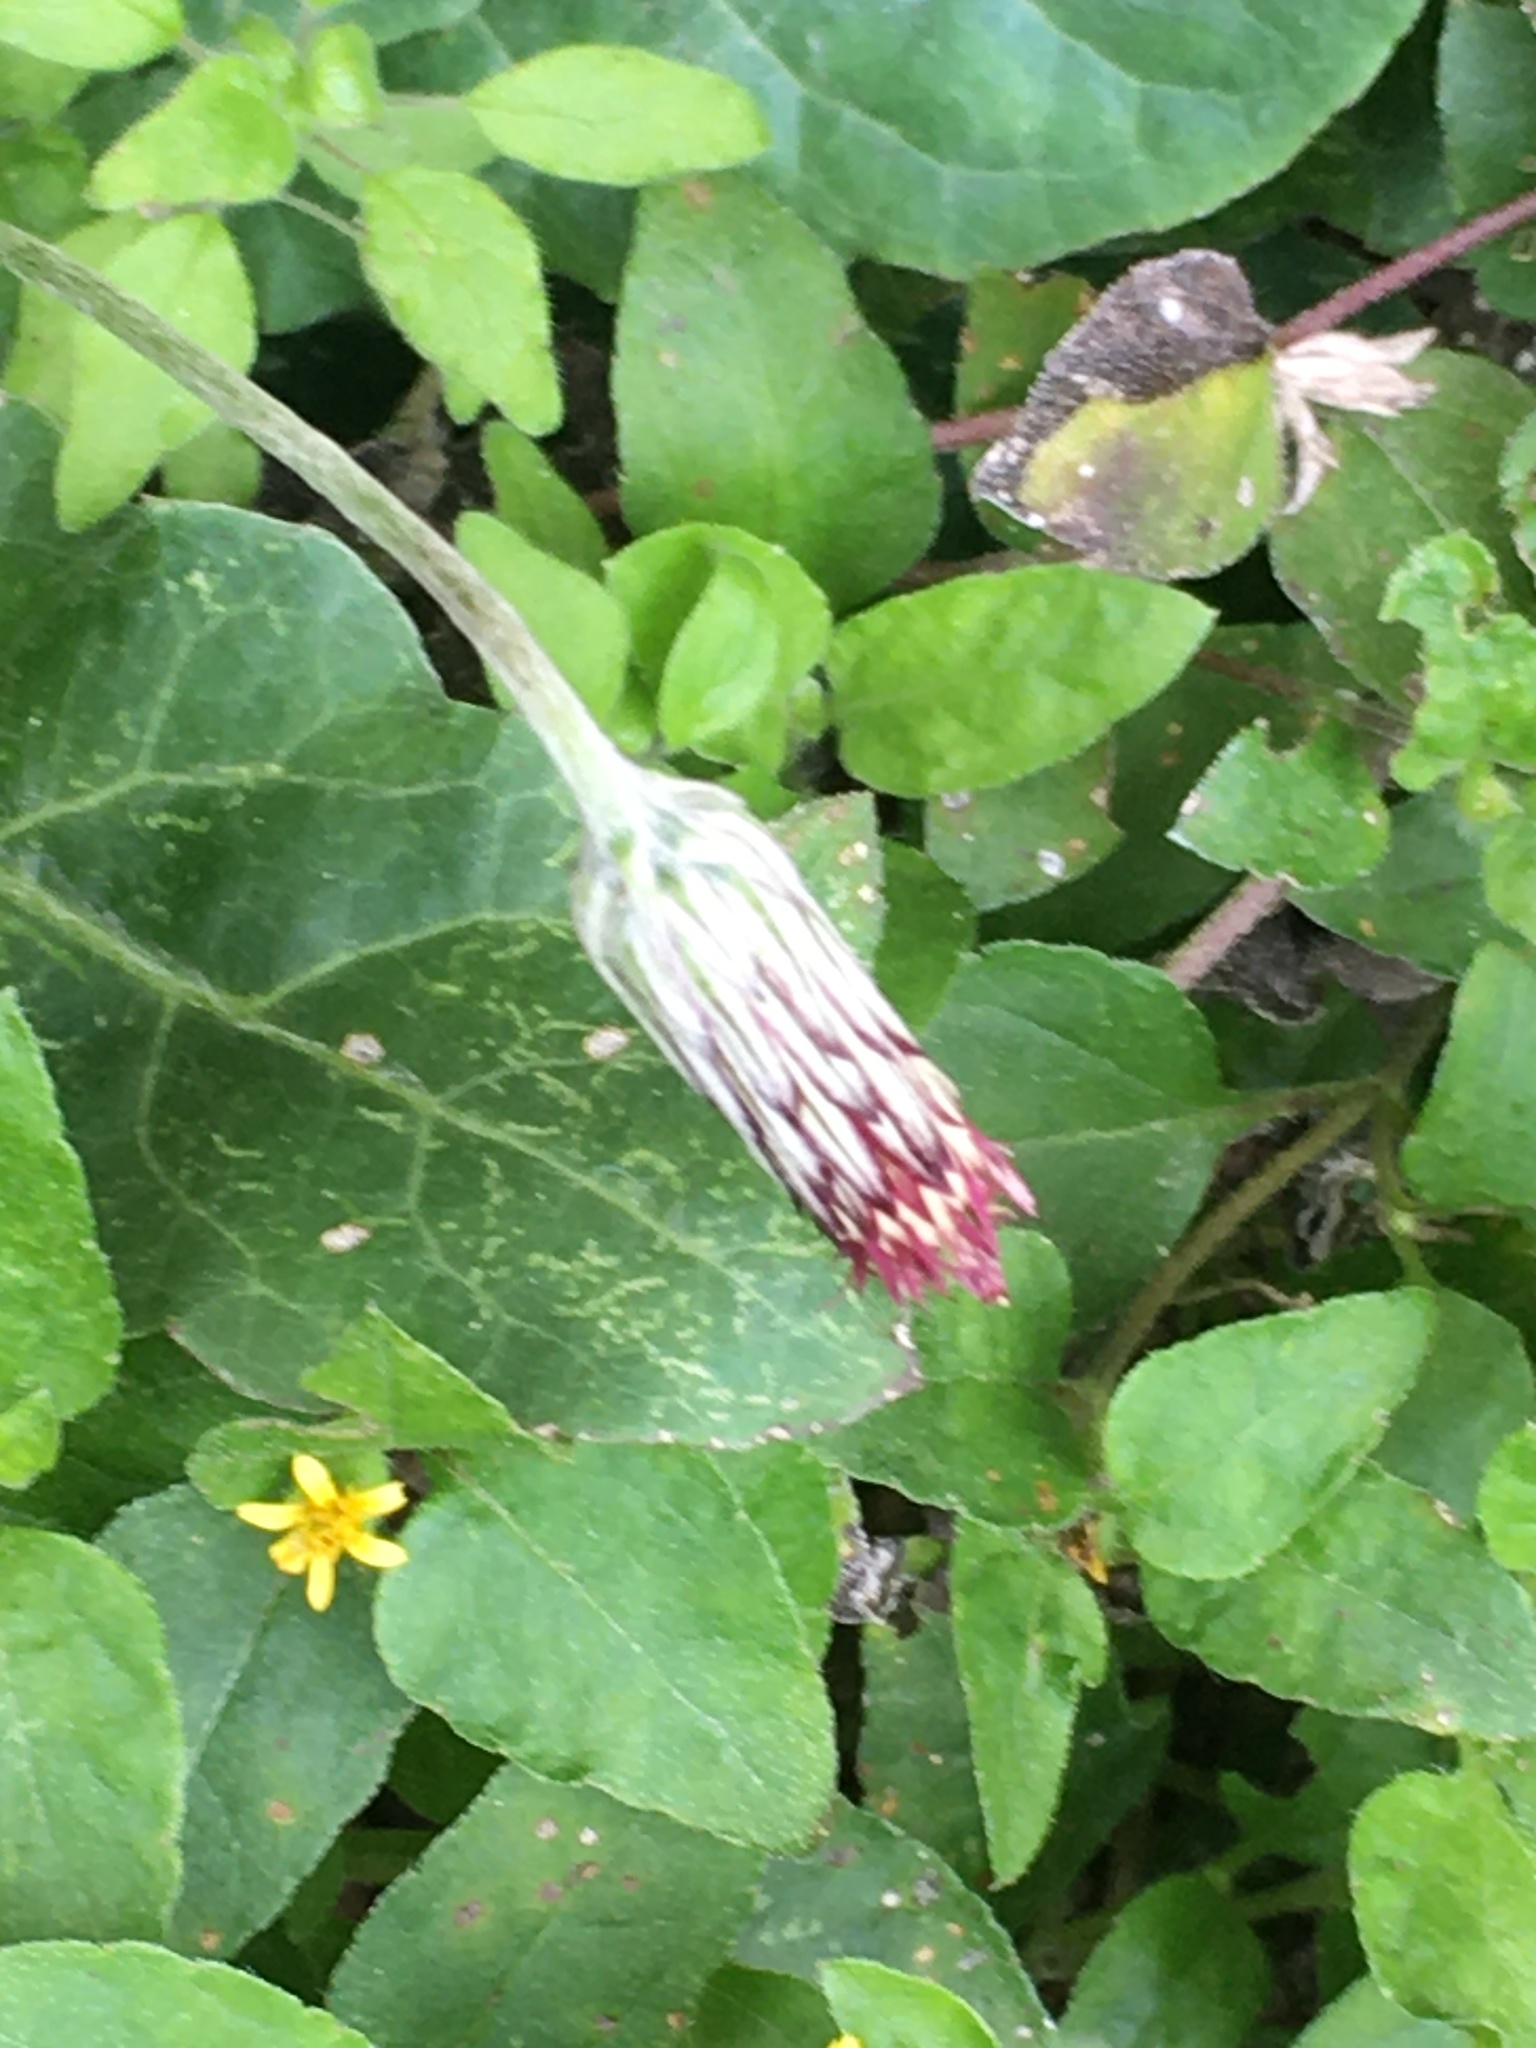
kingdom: Plantae
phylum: Tracheophyta
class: Magnoliopsida
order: Asterales
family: Asteraceae
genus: Chaptalia
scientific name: Chaptalia nutans
